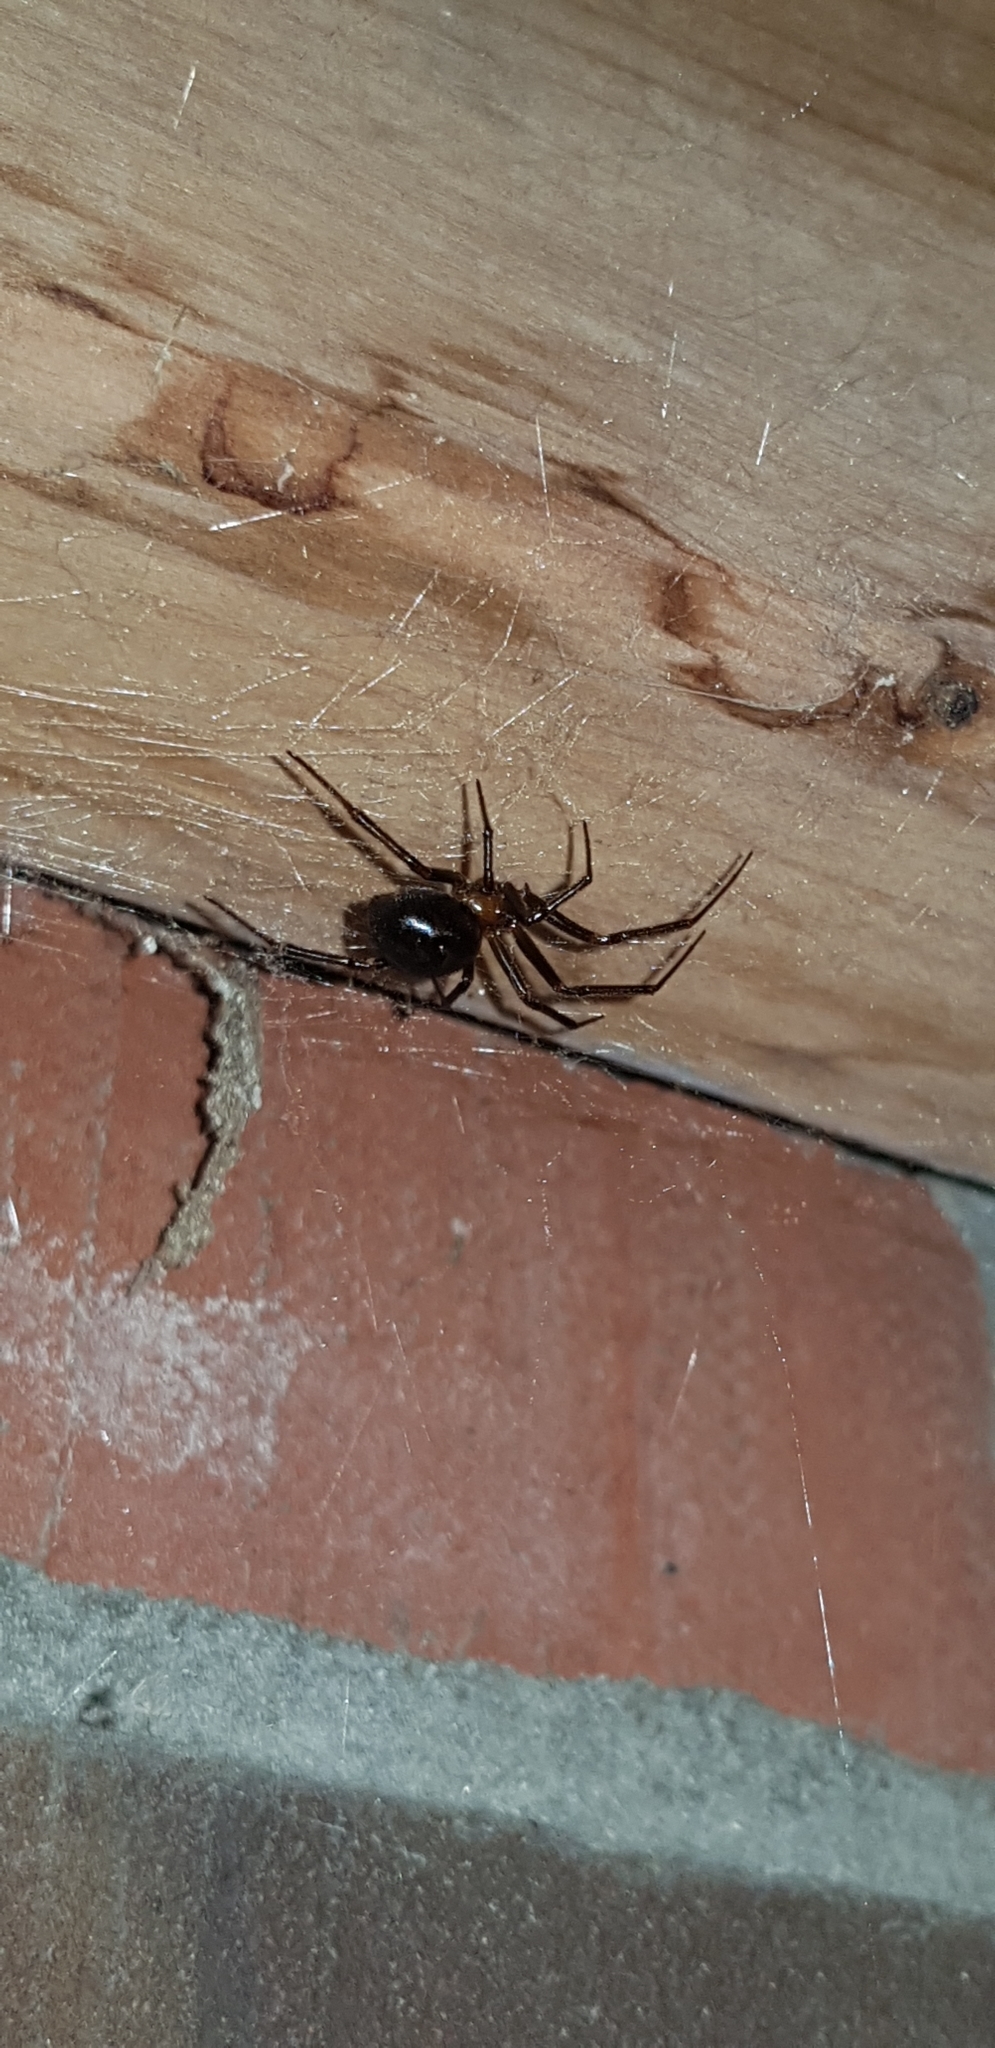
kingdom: Animalia
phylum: Arthropoda
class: Arachnida
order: Araneae
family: Theridiidae
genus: Steatoda
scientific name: Steatoda grossa
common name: False black widow
